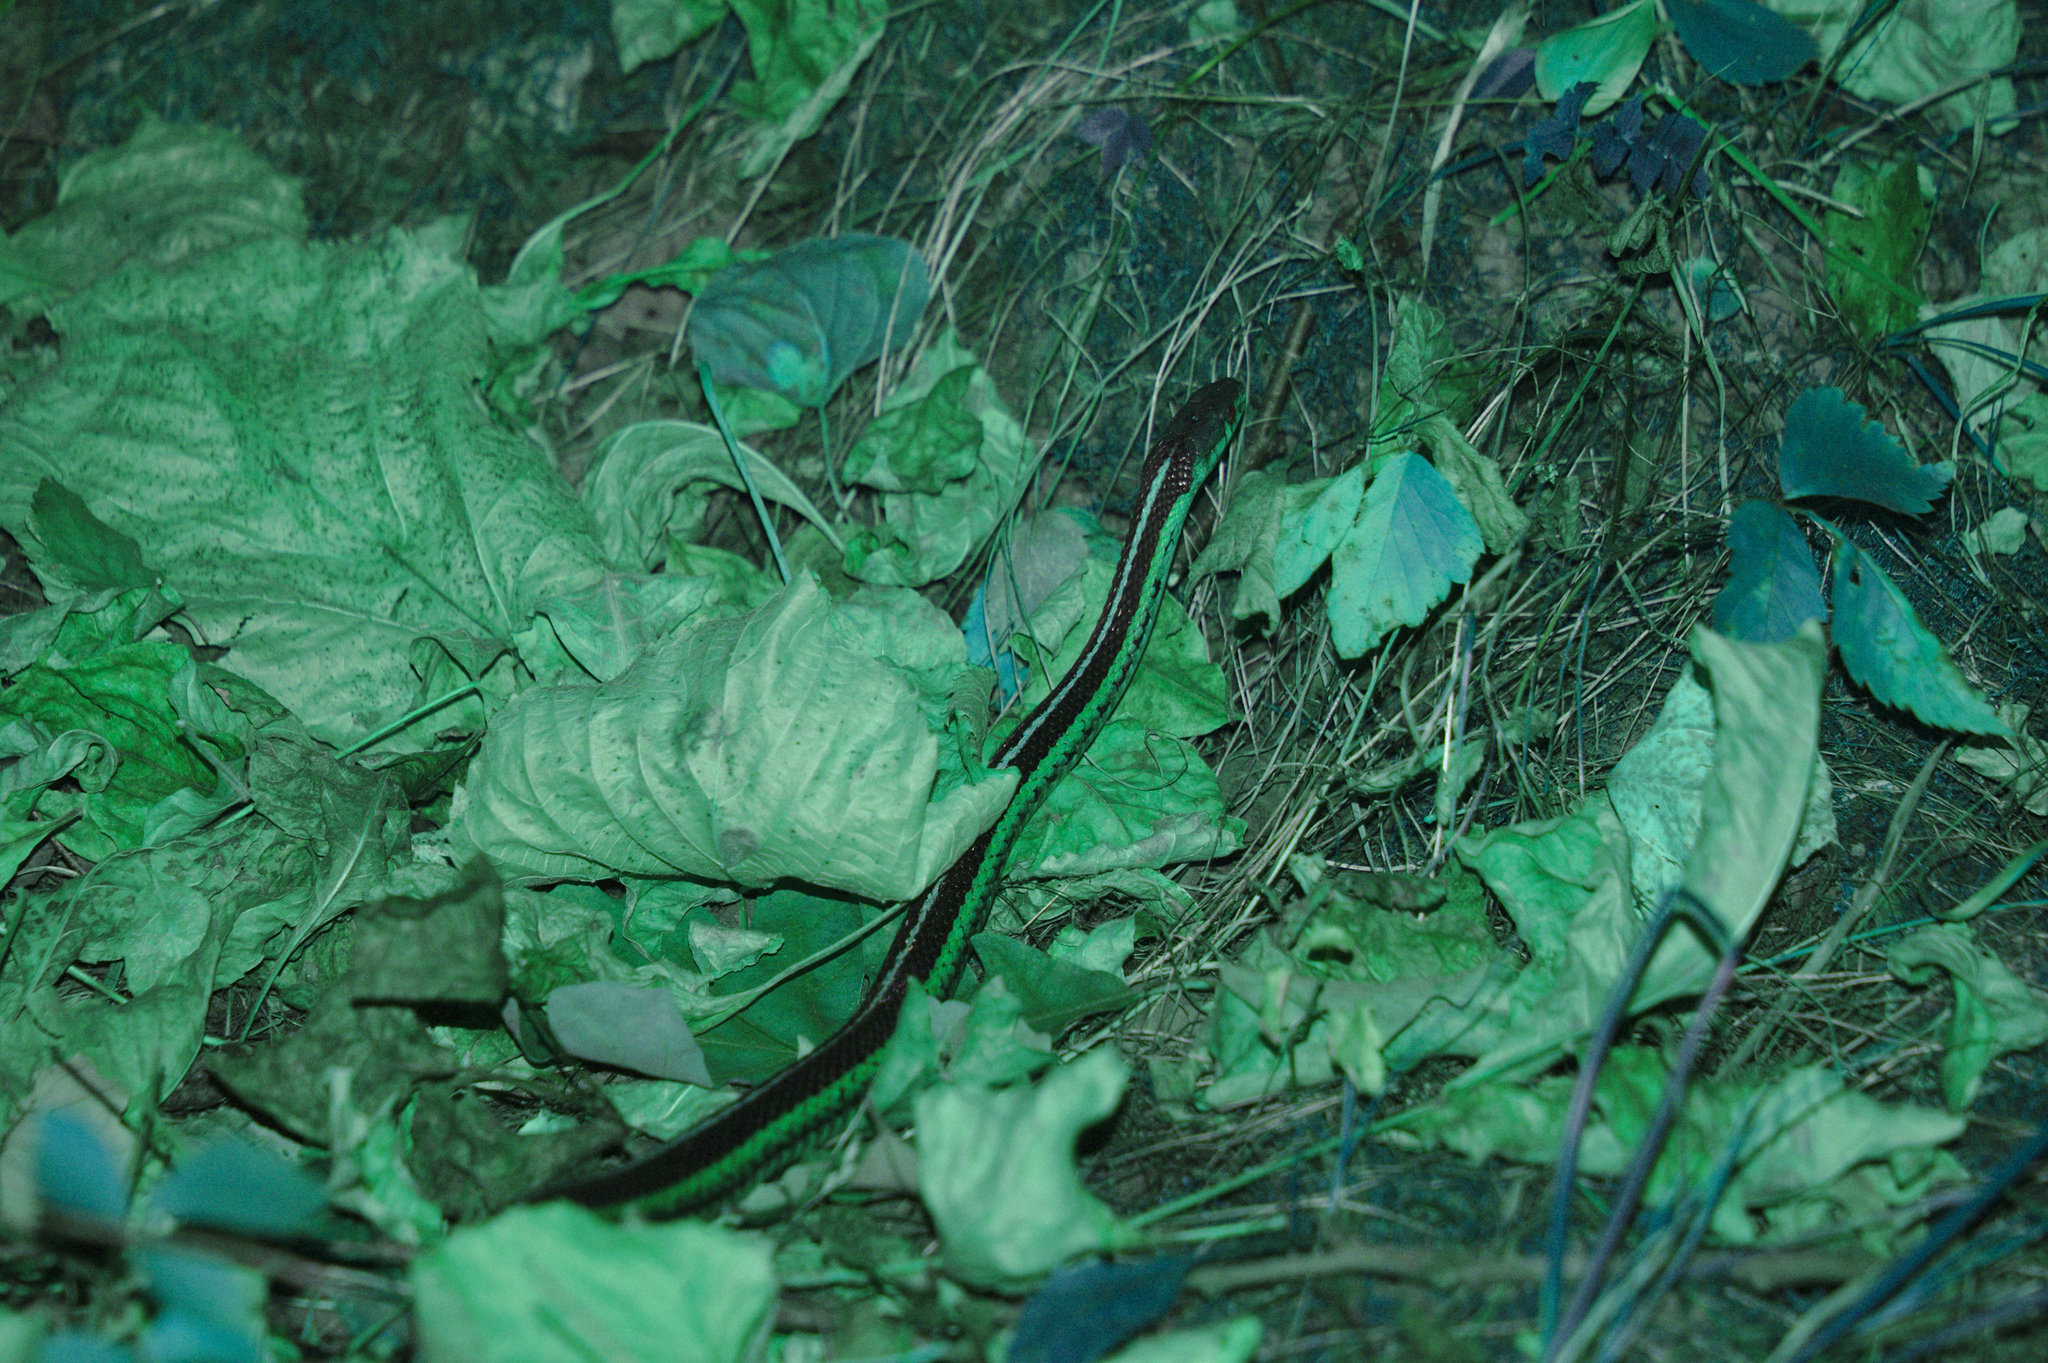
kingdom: Animalia
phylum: Chordata
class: Squamata
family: Colubridae
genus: Thamnophis
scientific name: Thamnophis sirtalis
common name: Common garter snake
